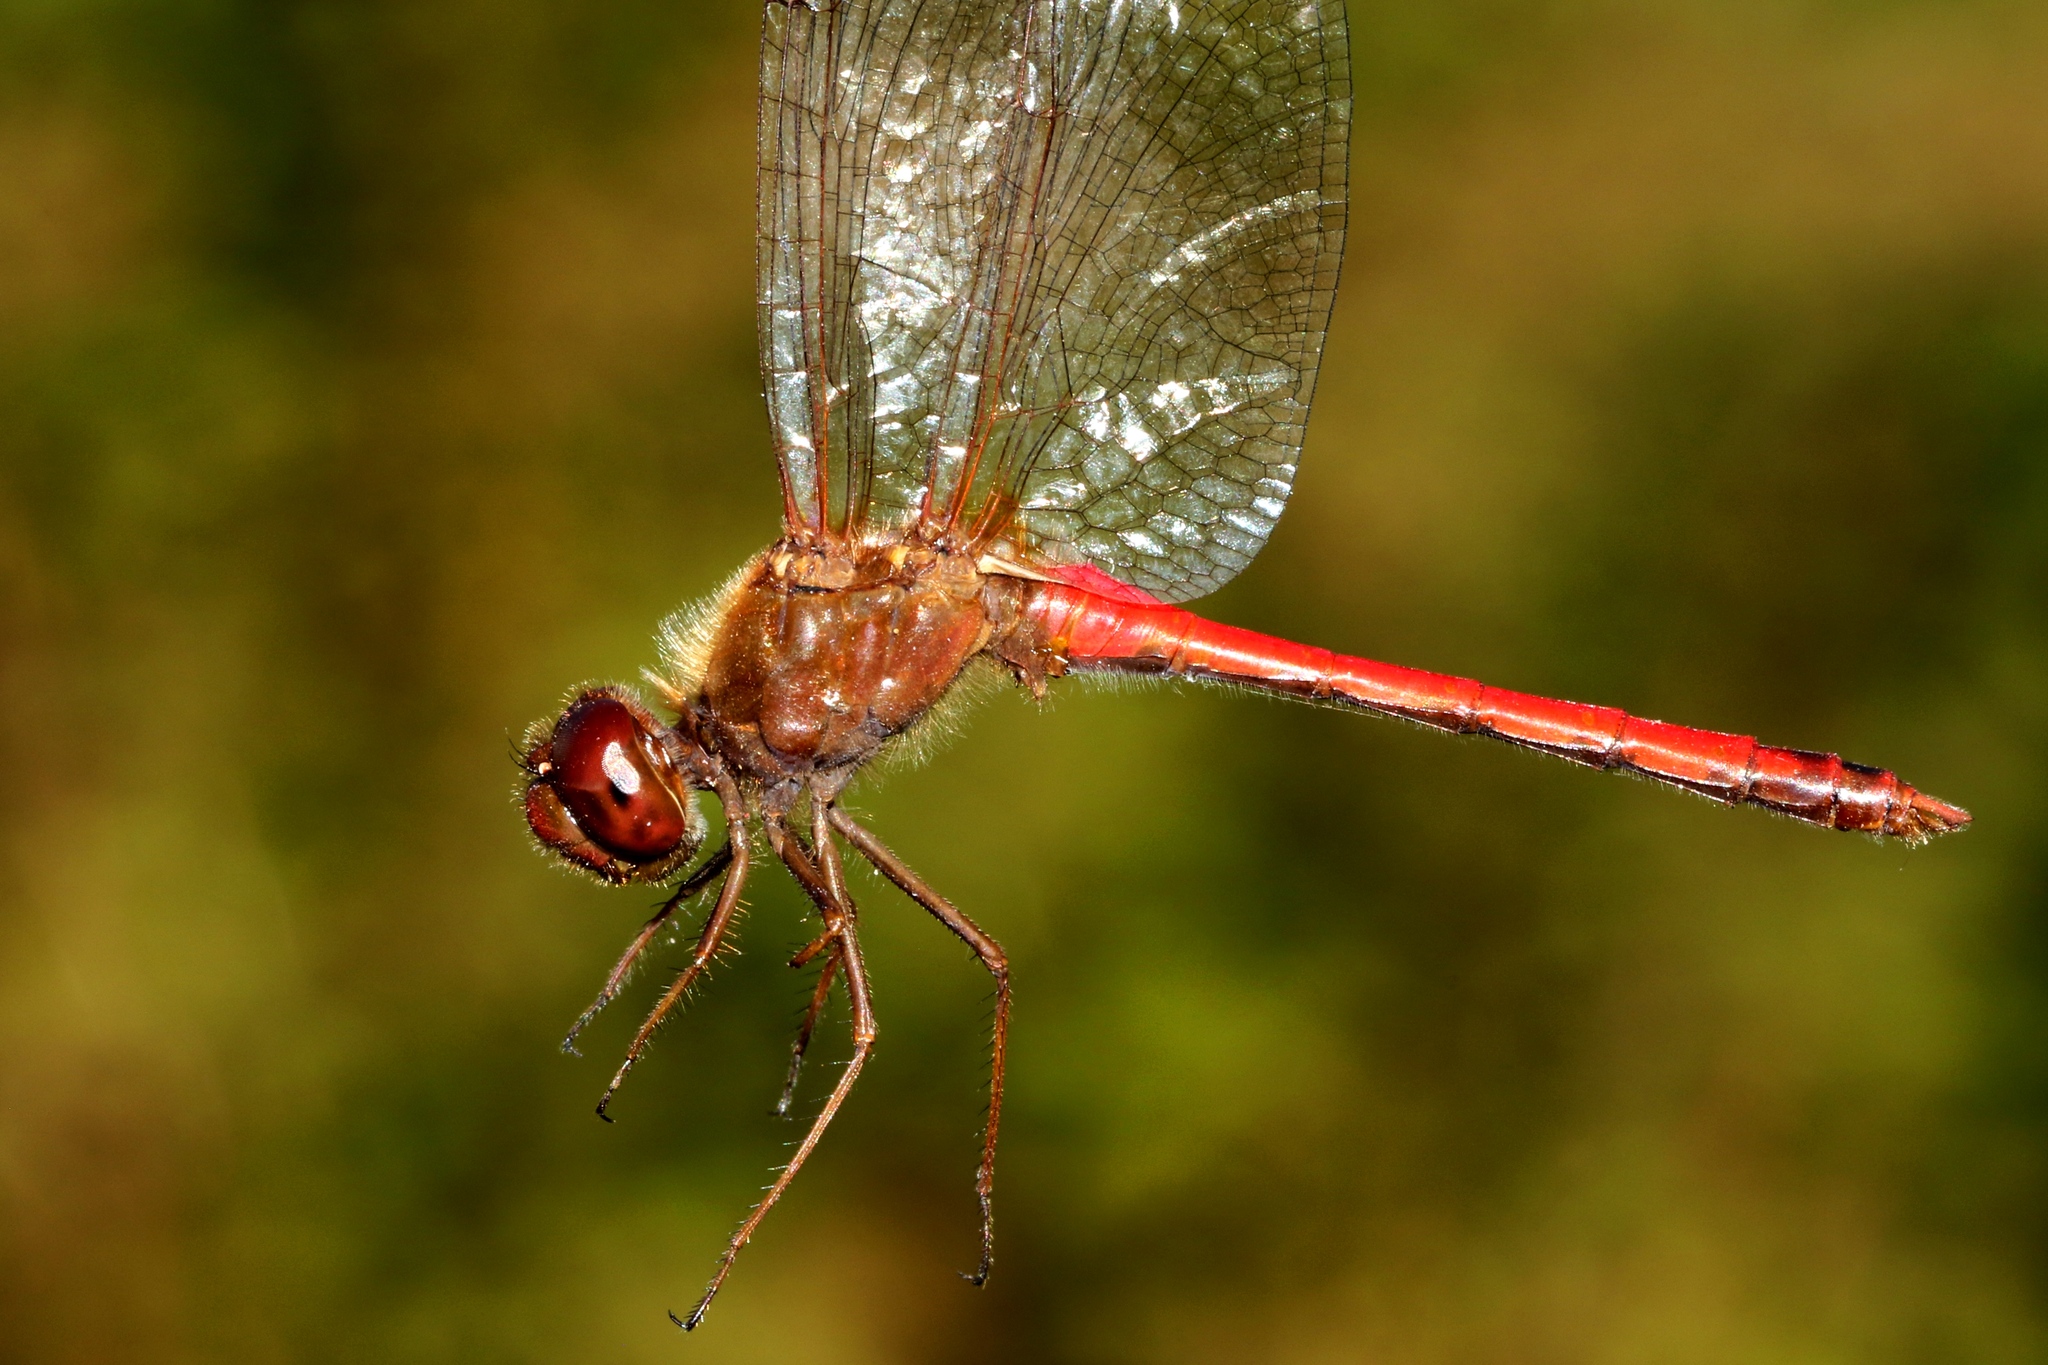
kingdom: Animalia
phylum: Arthropoda
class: Insecta
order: Odonata
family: Libellulidae
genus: Sympetrum
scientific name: Sympetrum vicinum
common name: Autumn meadowhawk
